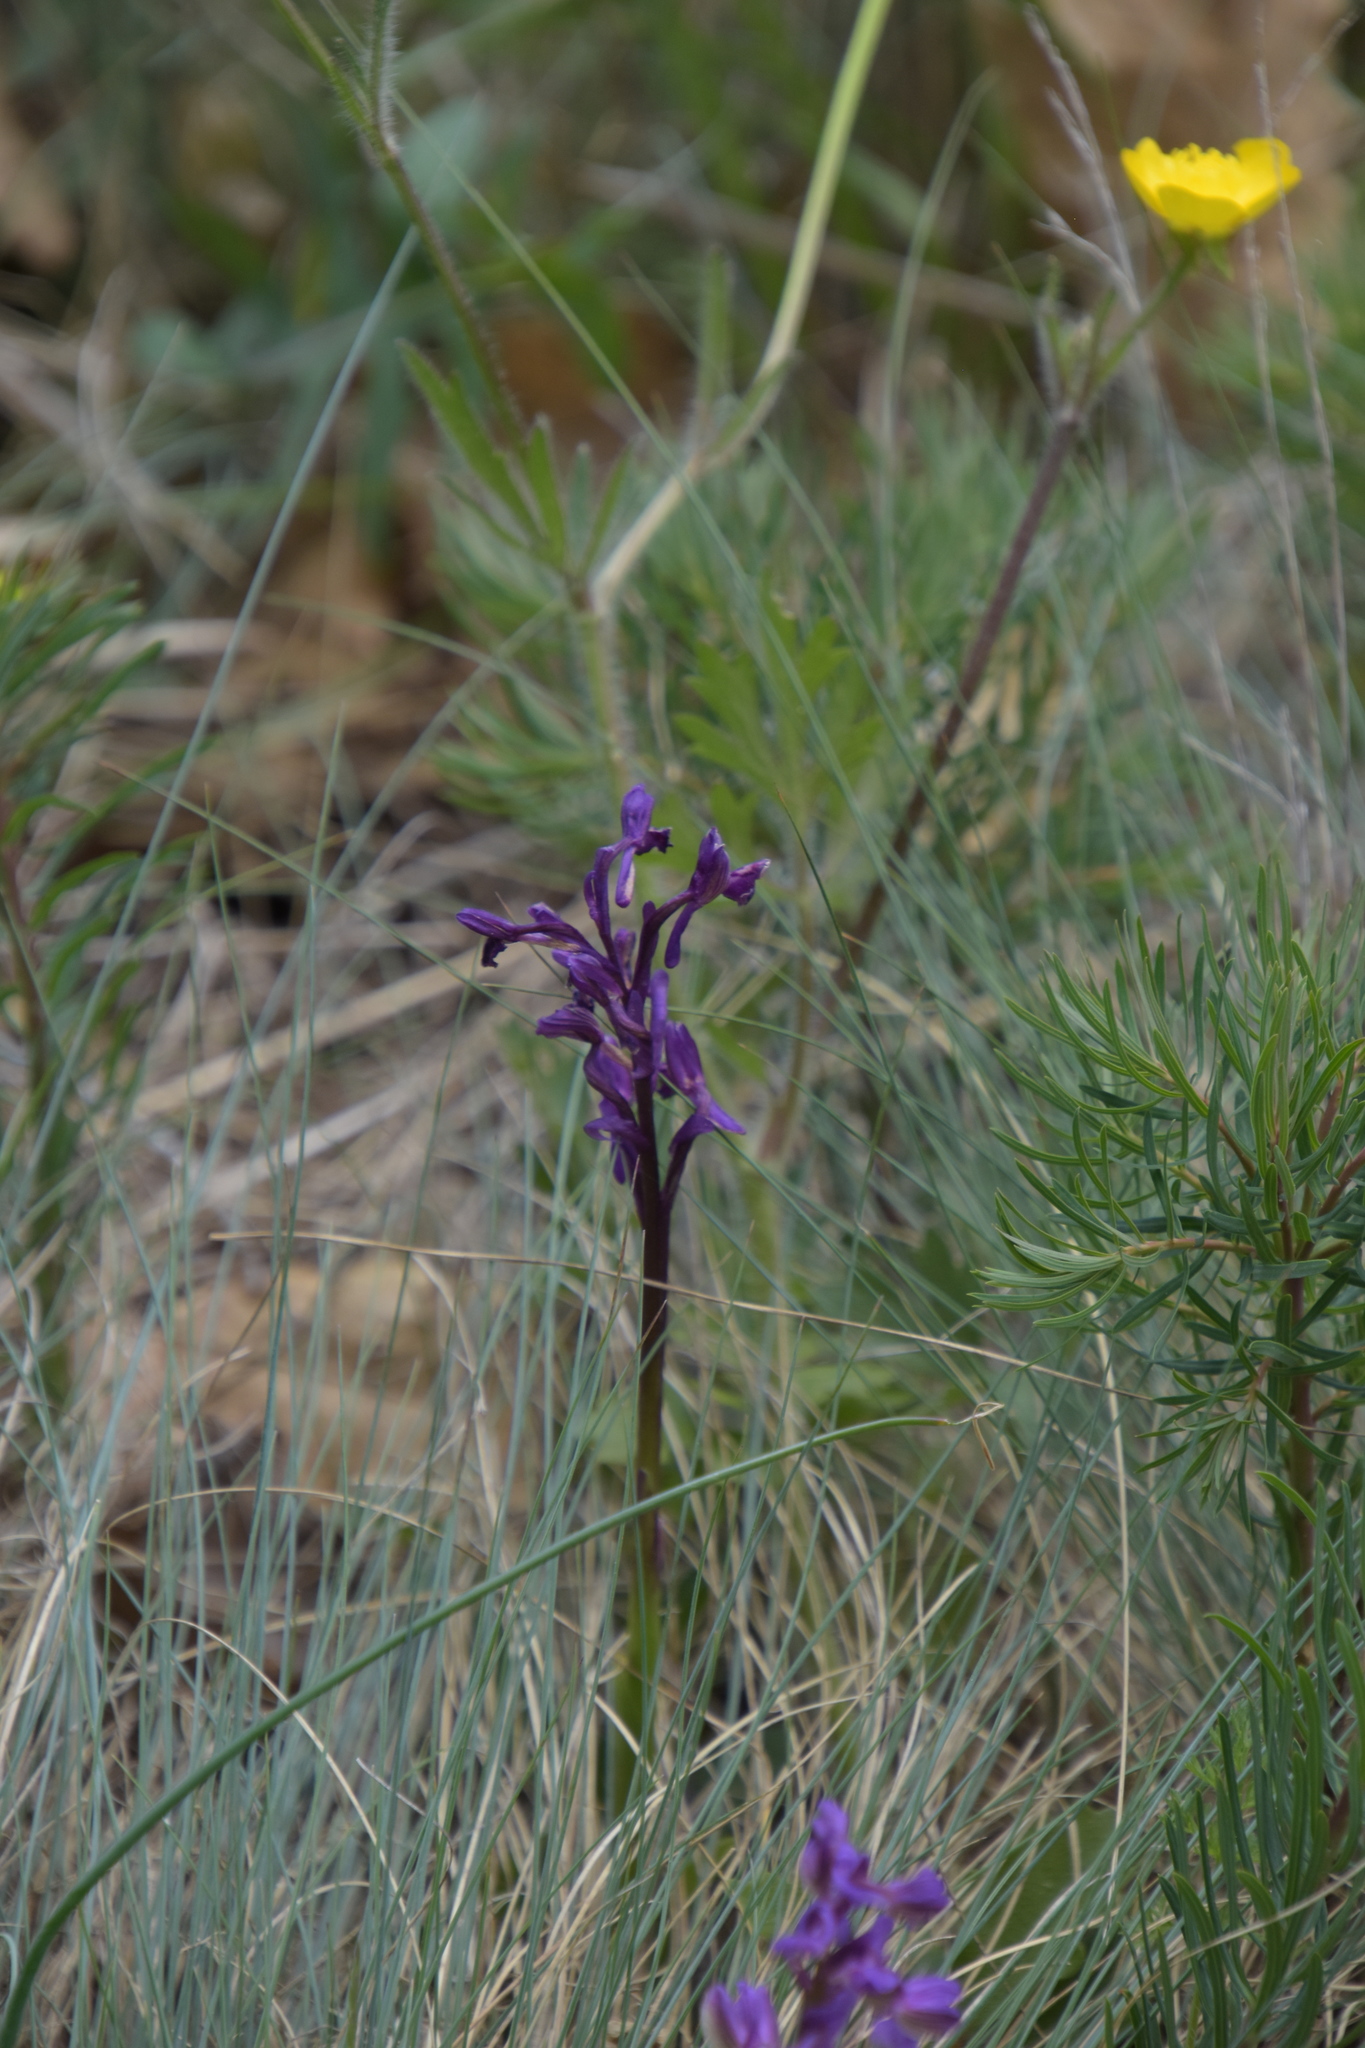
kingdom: Plantae
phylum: Tracheophyta
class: Liliopsida
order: Asparagales
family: Orchidaceae
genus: Anacamptis
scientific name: Anacamptis morio
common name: Green-winged orchid
